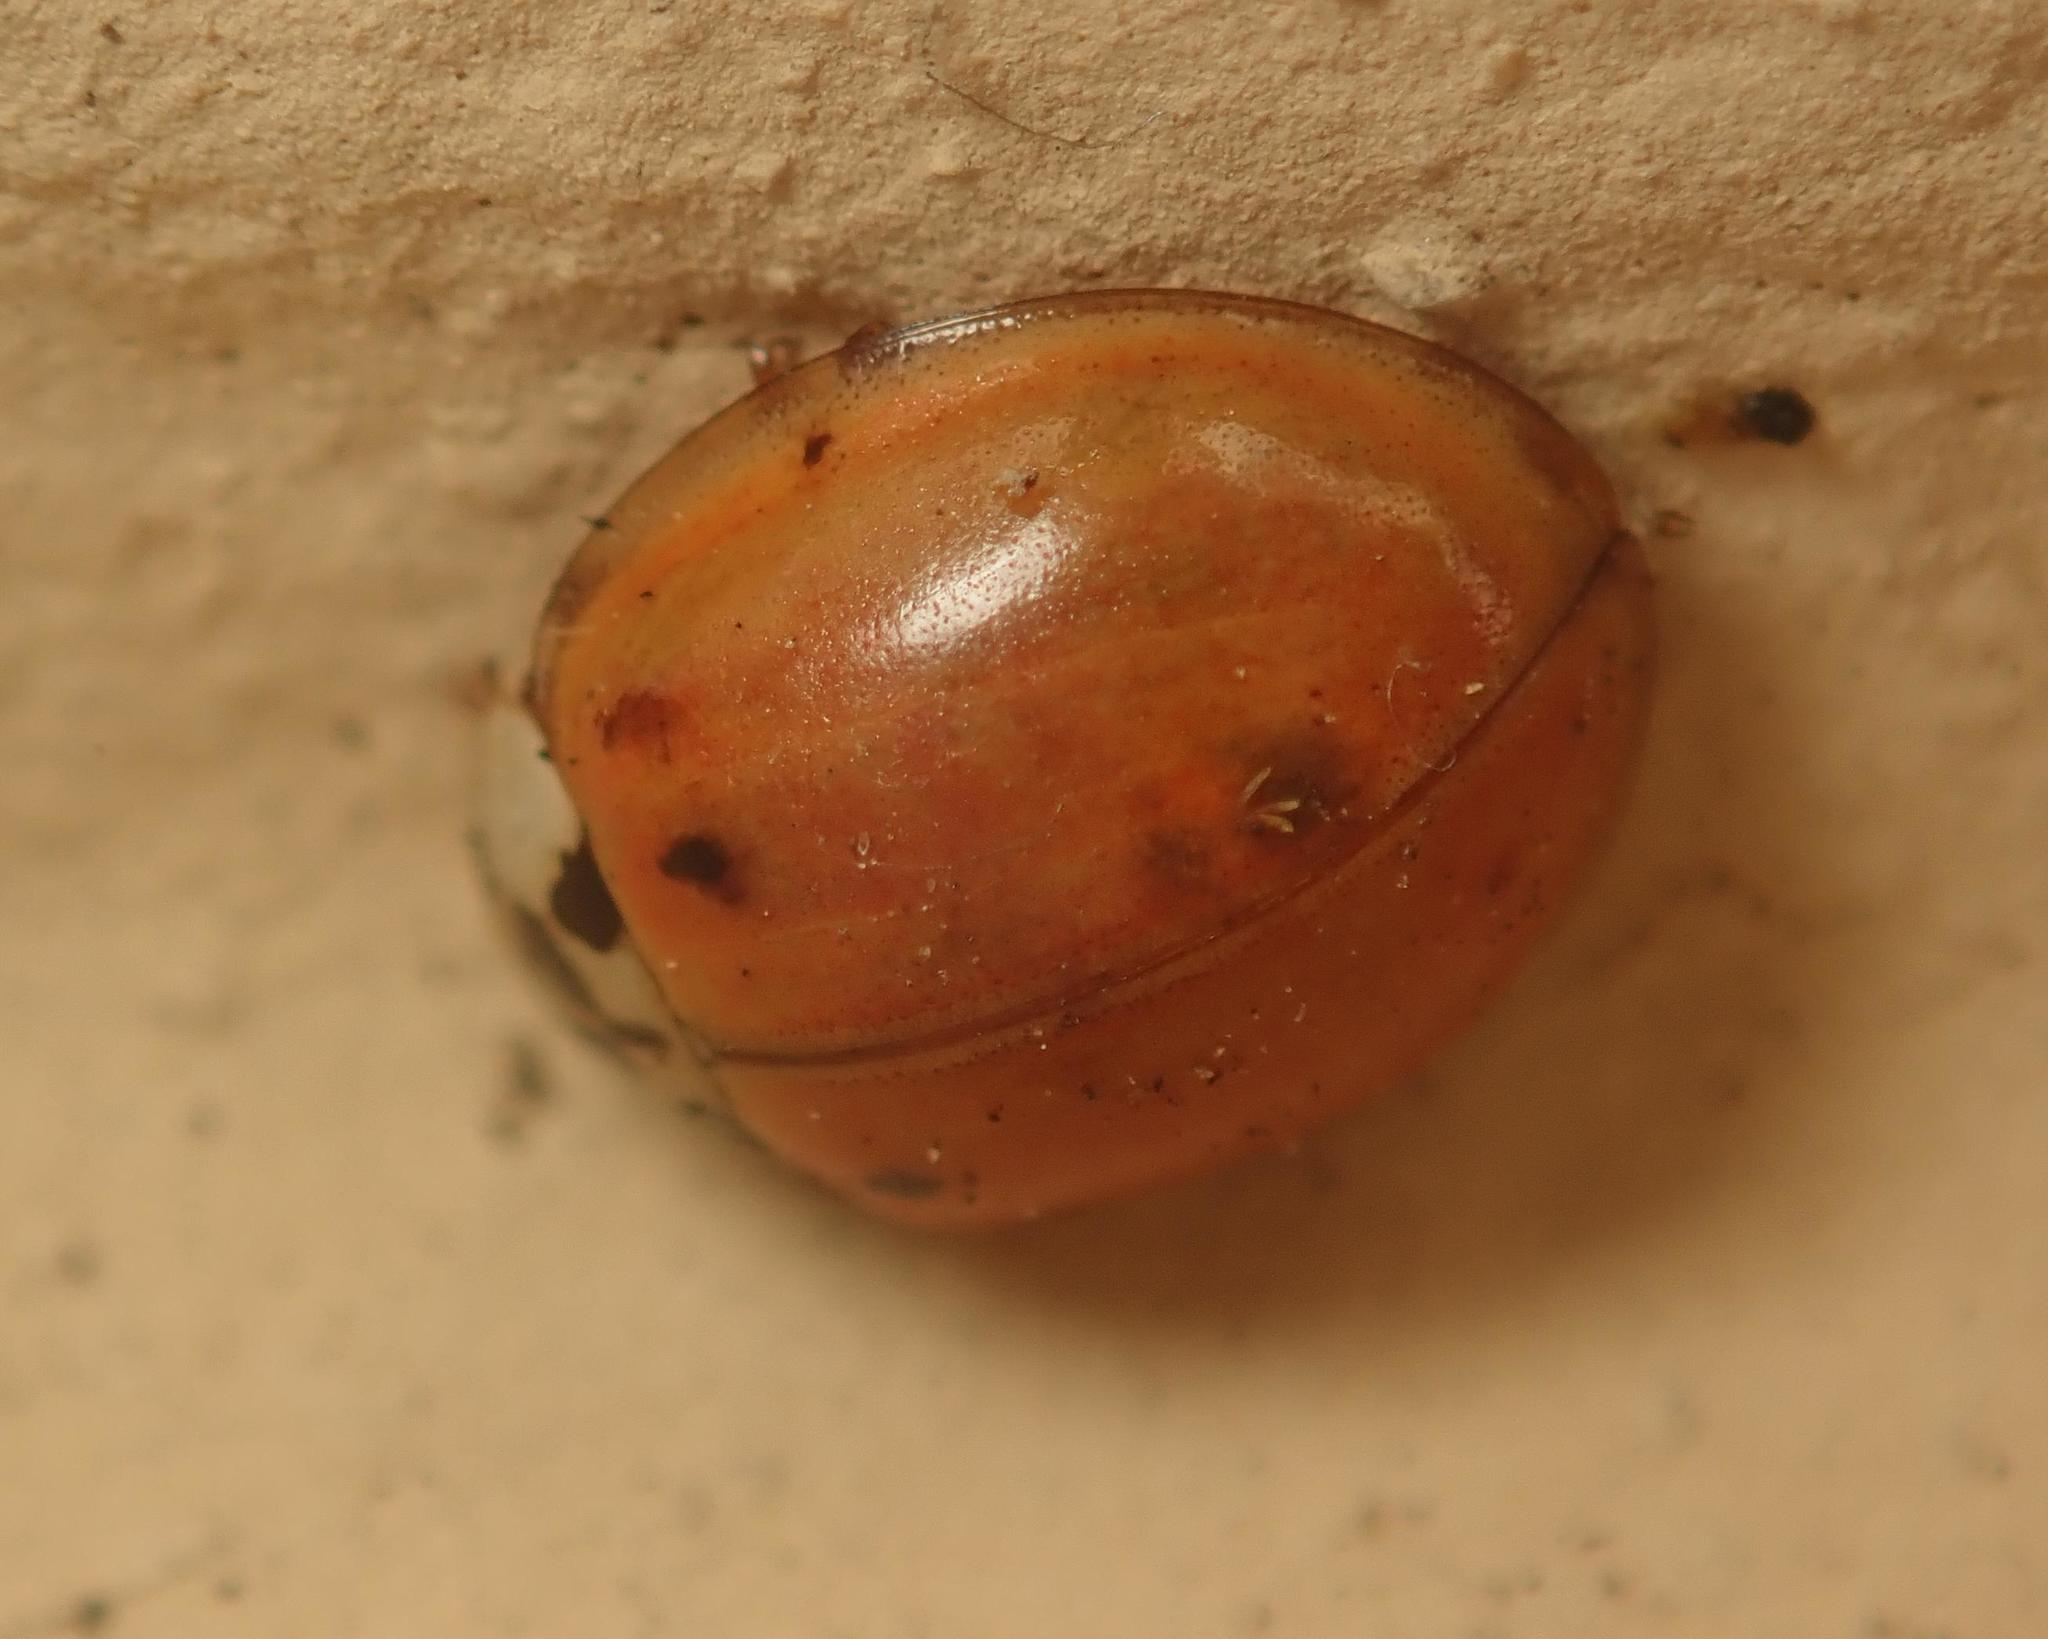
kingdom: Animalia
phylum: Arthropoda
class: Insecta
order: Coleoptera
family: Coccinellidae
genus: Harmonia
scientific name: Harmonia axyridis
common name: Harlequin ladybird
